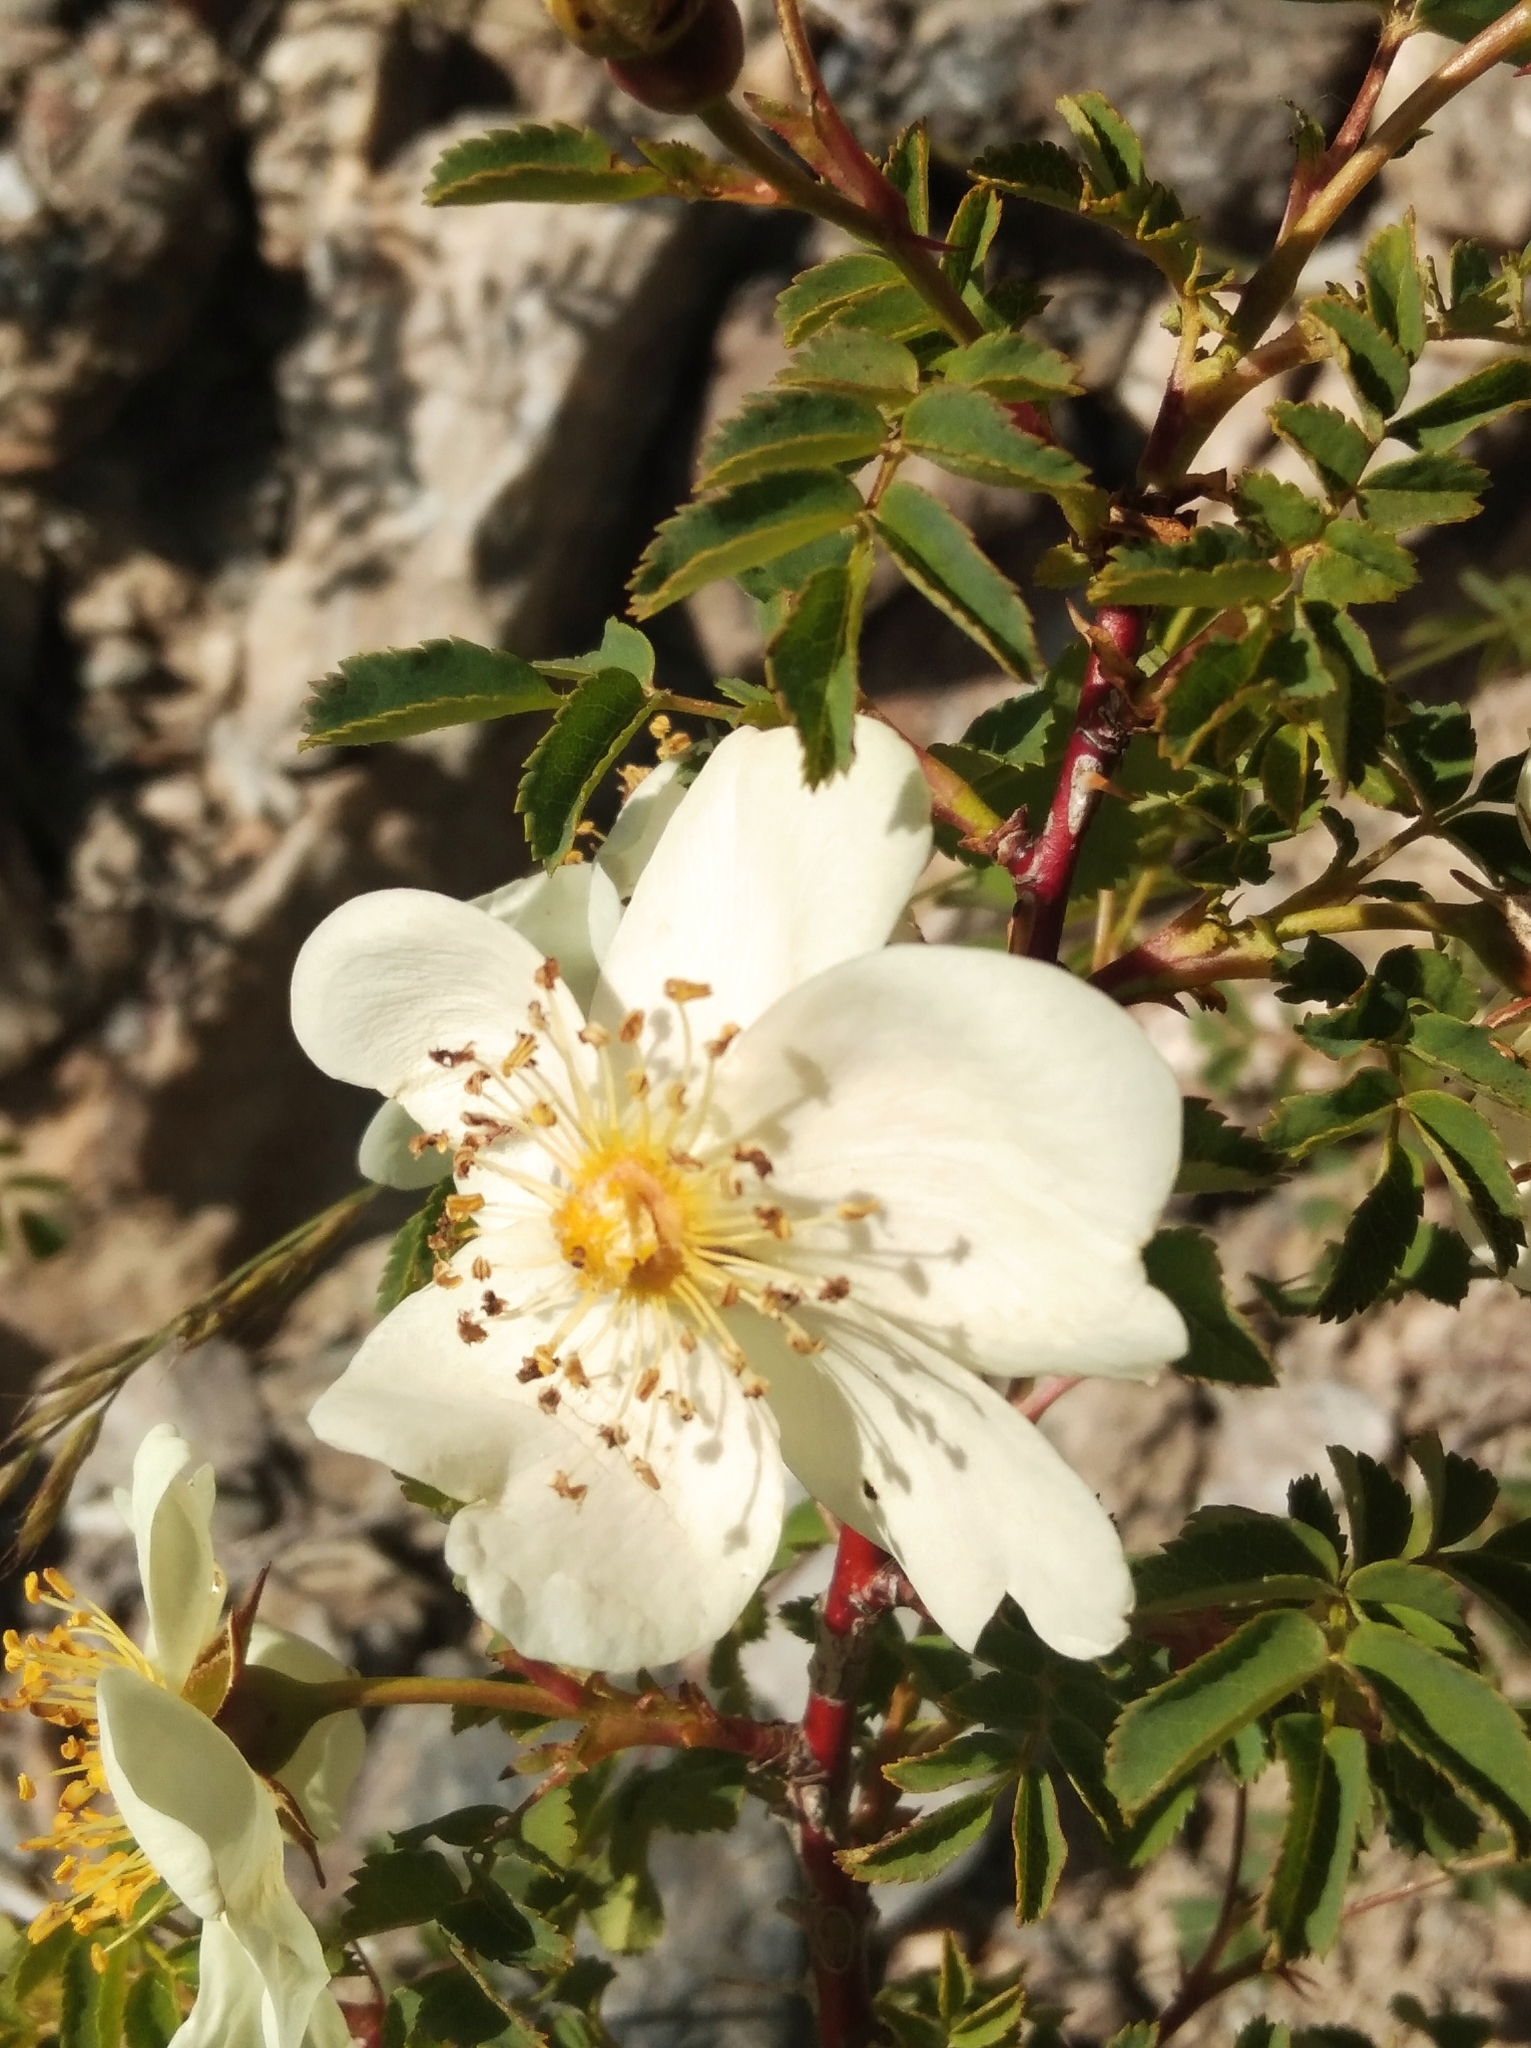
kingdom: Plantae
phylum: Tracheophyta
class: Magnoliopsida
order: Rosales
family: Rosaceae
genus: Rosa
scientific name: Rosa spinosissima
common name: Burnet rose
